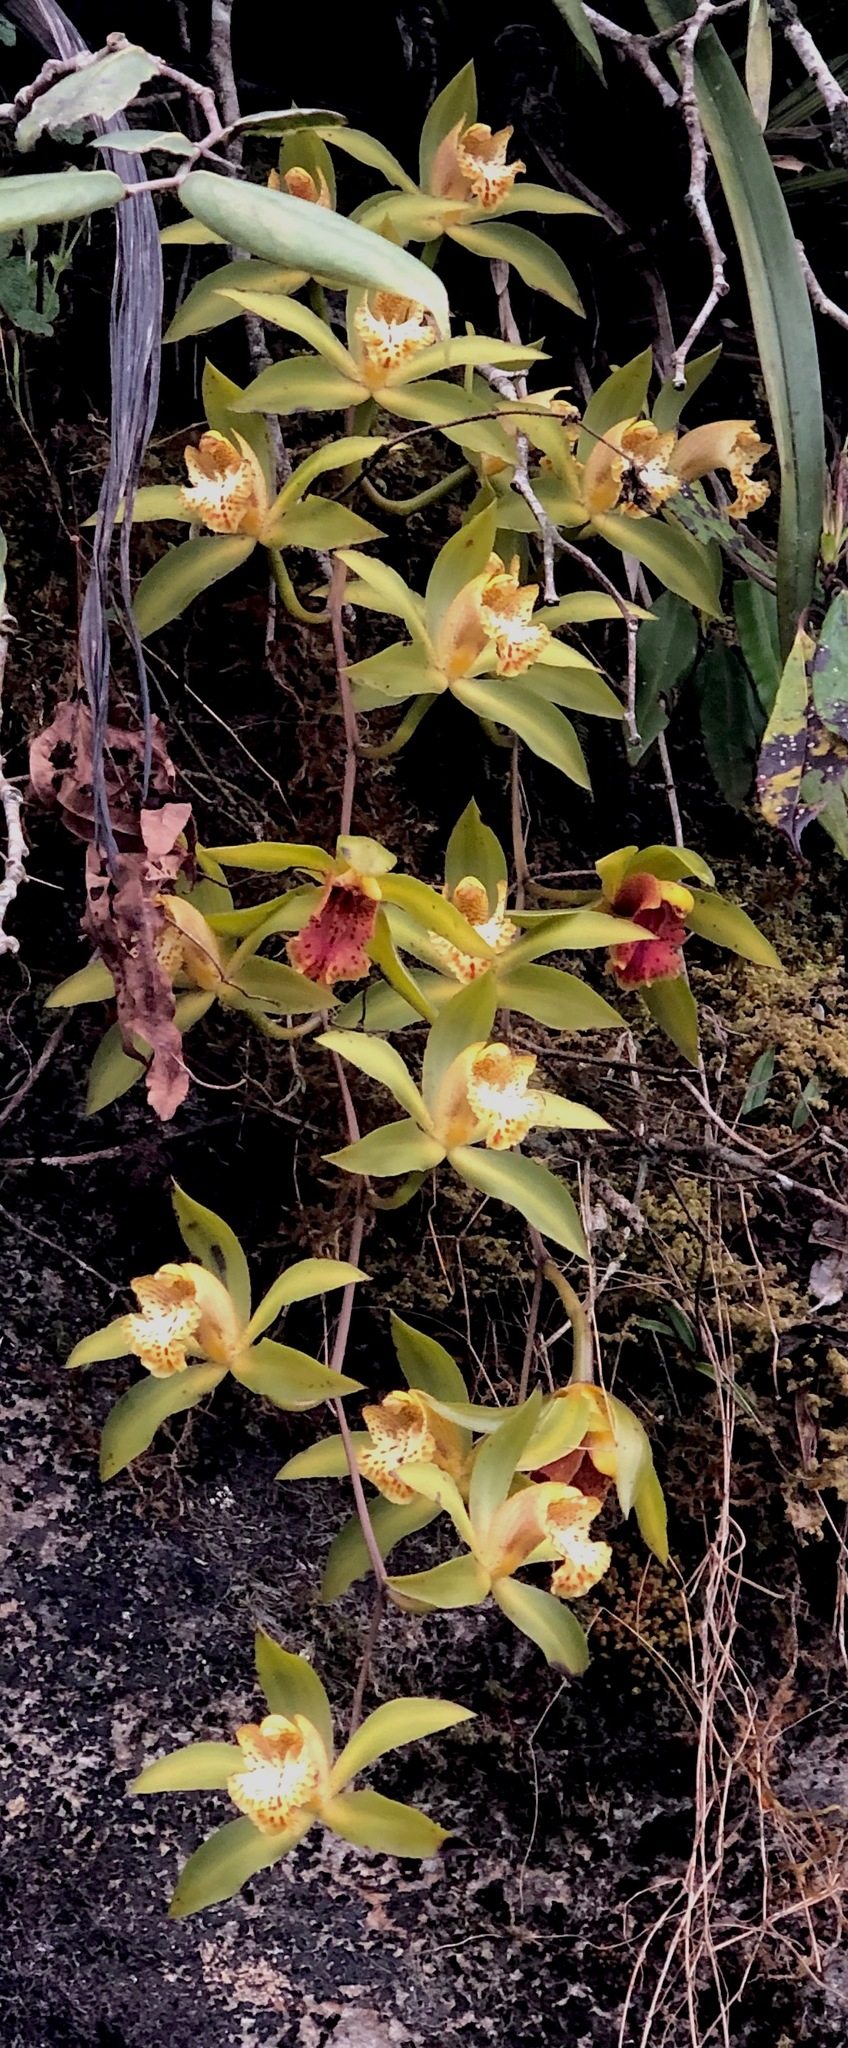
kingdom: Plantae
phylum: Tracheophyta
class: Liliopsida
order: Asparagales
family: Orchidaceae
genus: Cymbidium
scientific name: Cymbidium hookerianum
